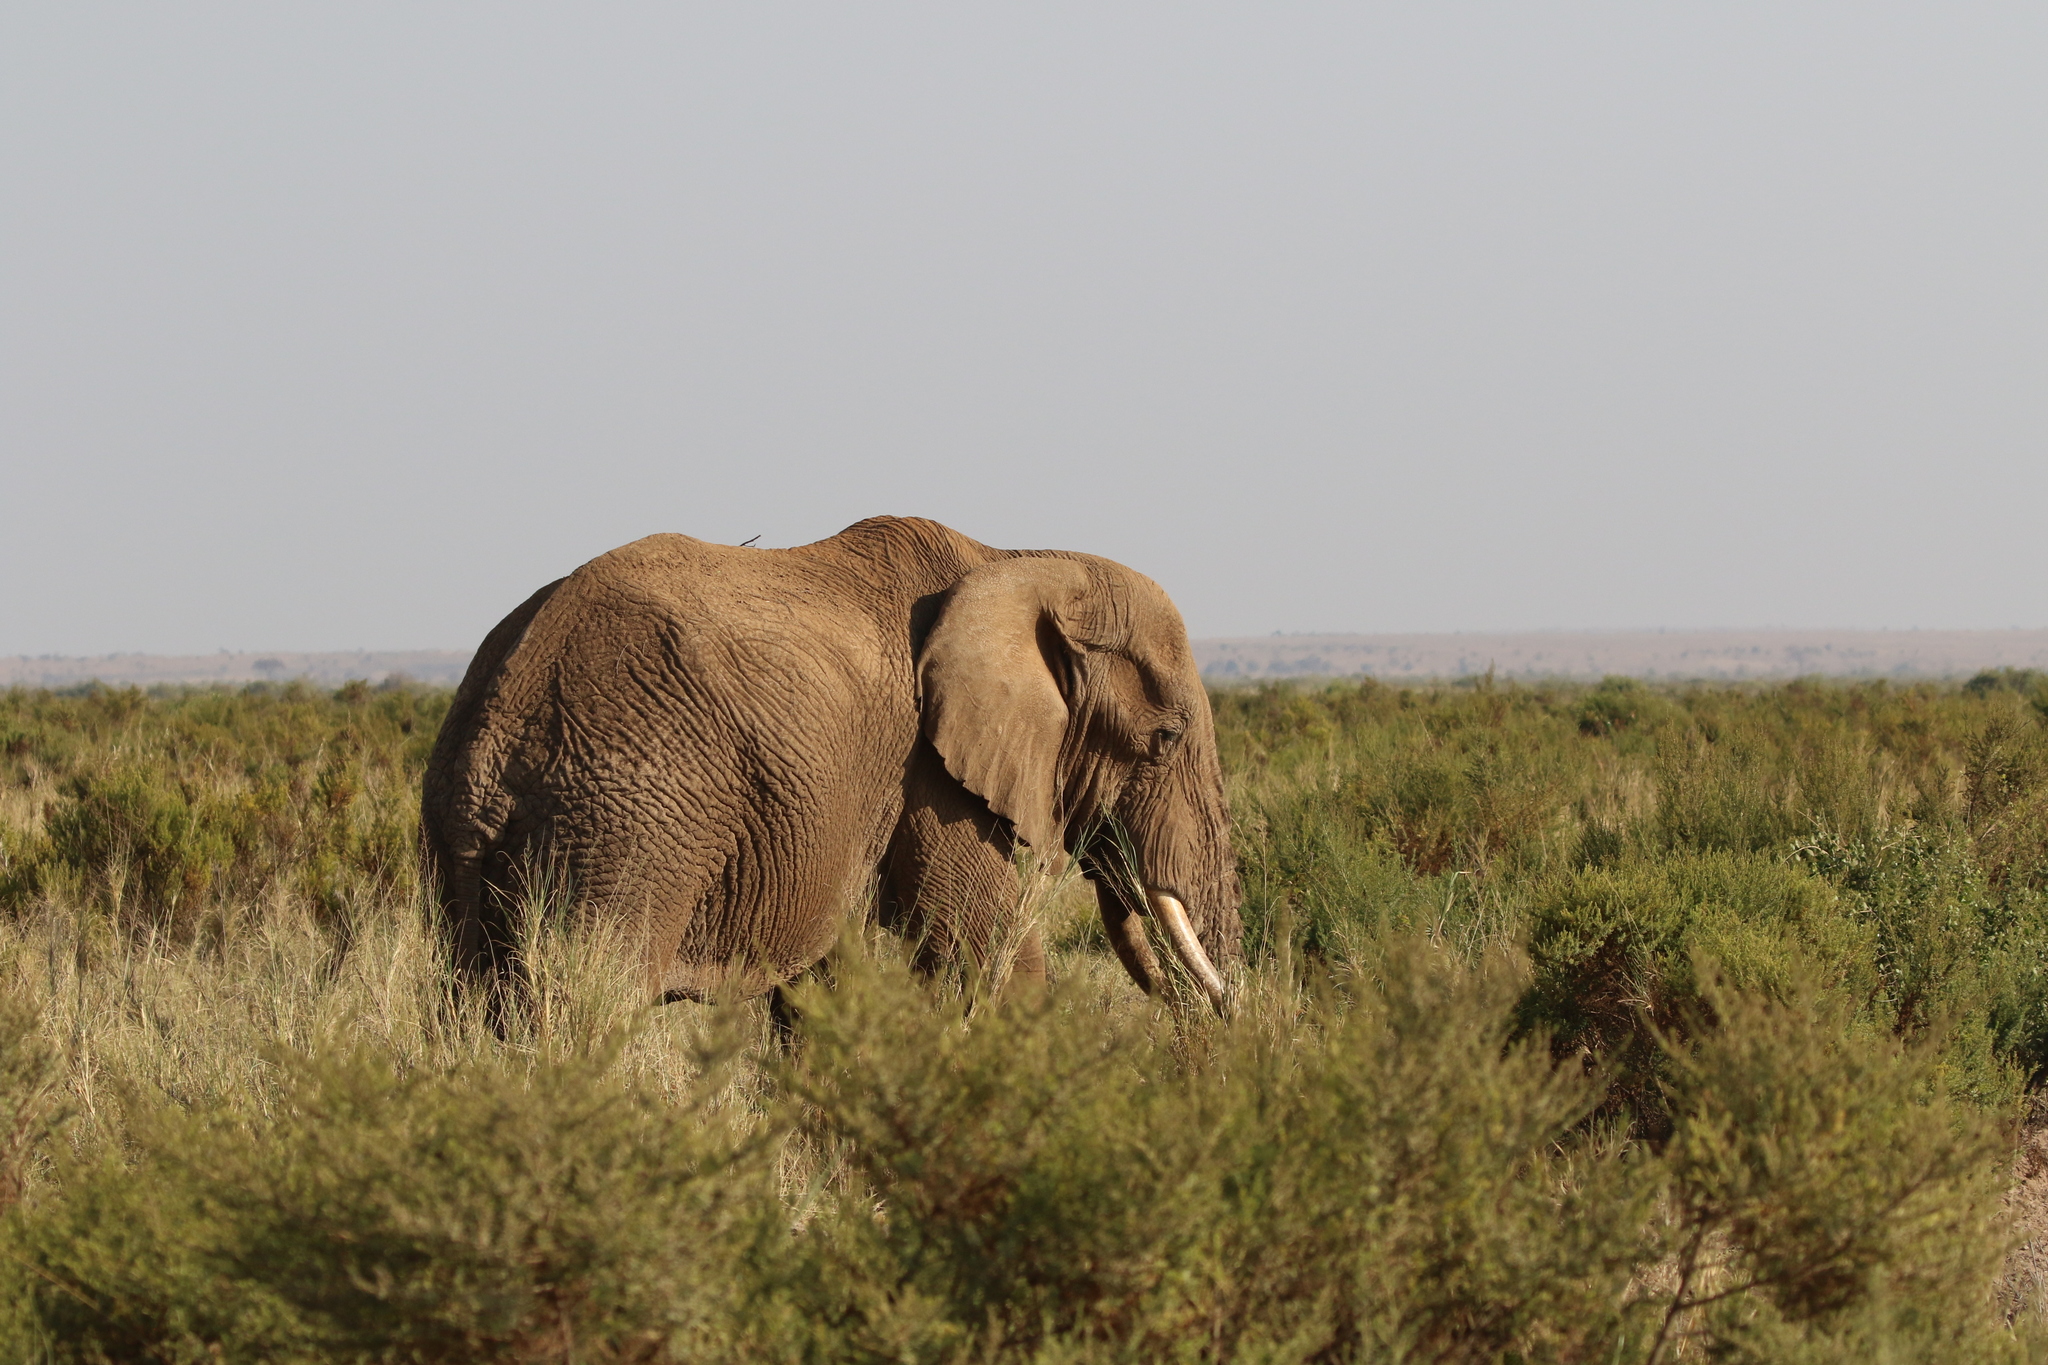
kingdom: Animalia
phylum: Chordata
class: Mammalia
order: Proboscidea
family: Elephantidae
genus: Loxodonta
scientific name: Loxodonta africana
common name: African elephant
